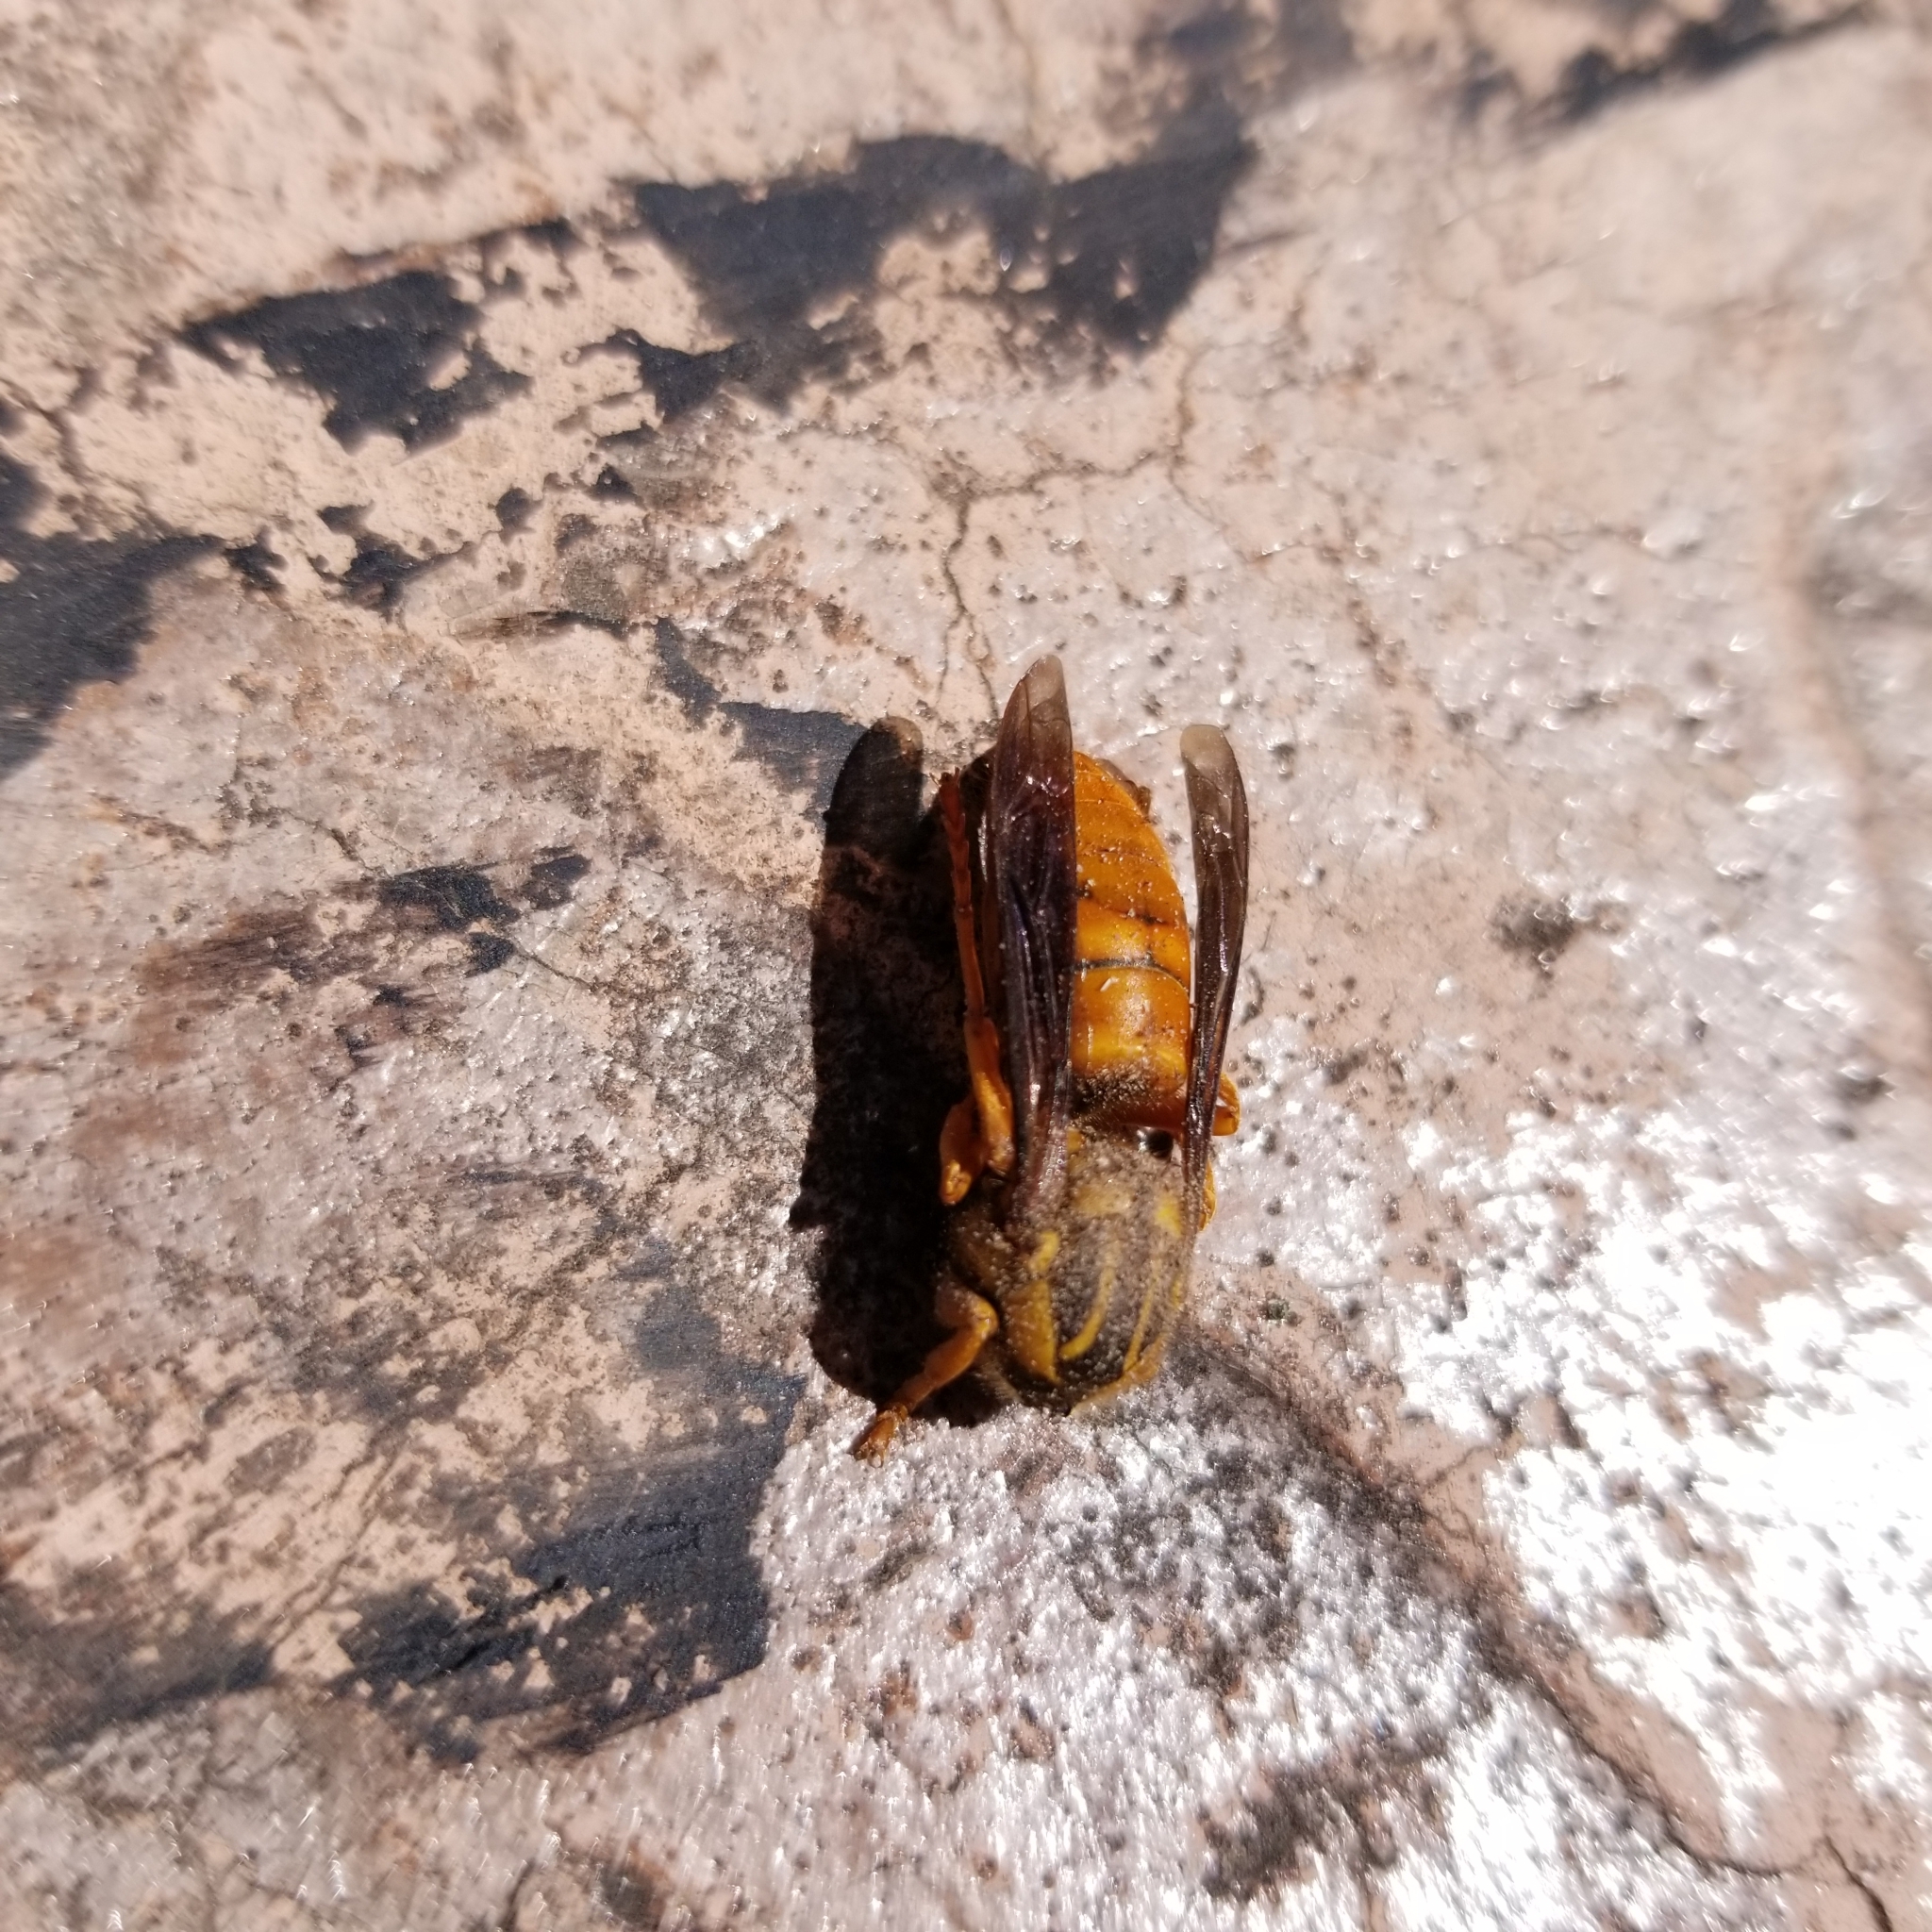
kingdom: Animalia
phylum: Arthropoda
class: Insecta
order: Hymenoptera
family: Vespidae
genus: Vespula
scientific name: Vespula squamosa
